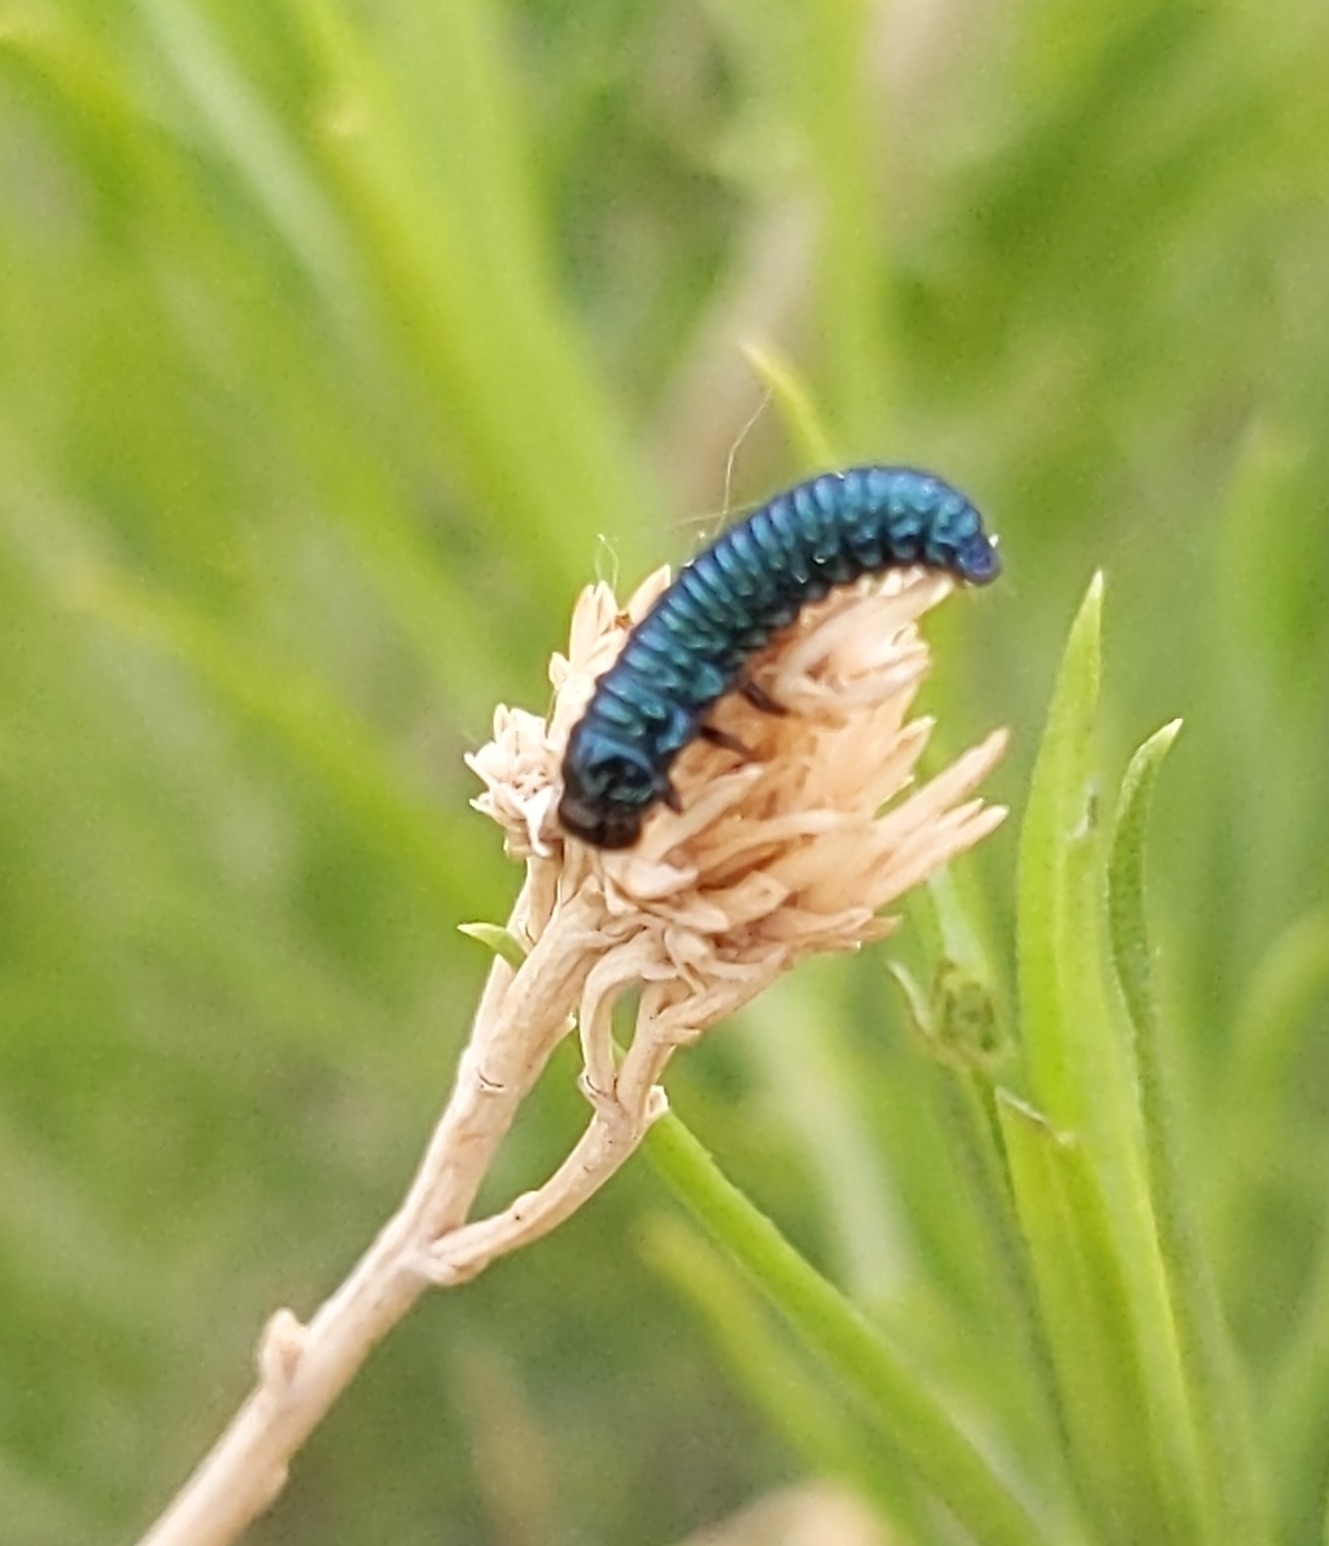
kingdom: Animalia
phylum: Arthropoda
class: Insecta
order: Coleoptera
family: Chrysomelidae
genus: Trirhabda
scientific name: Trirhabda nitidicollis
